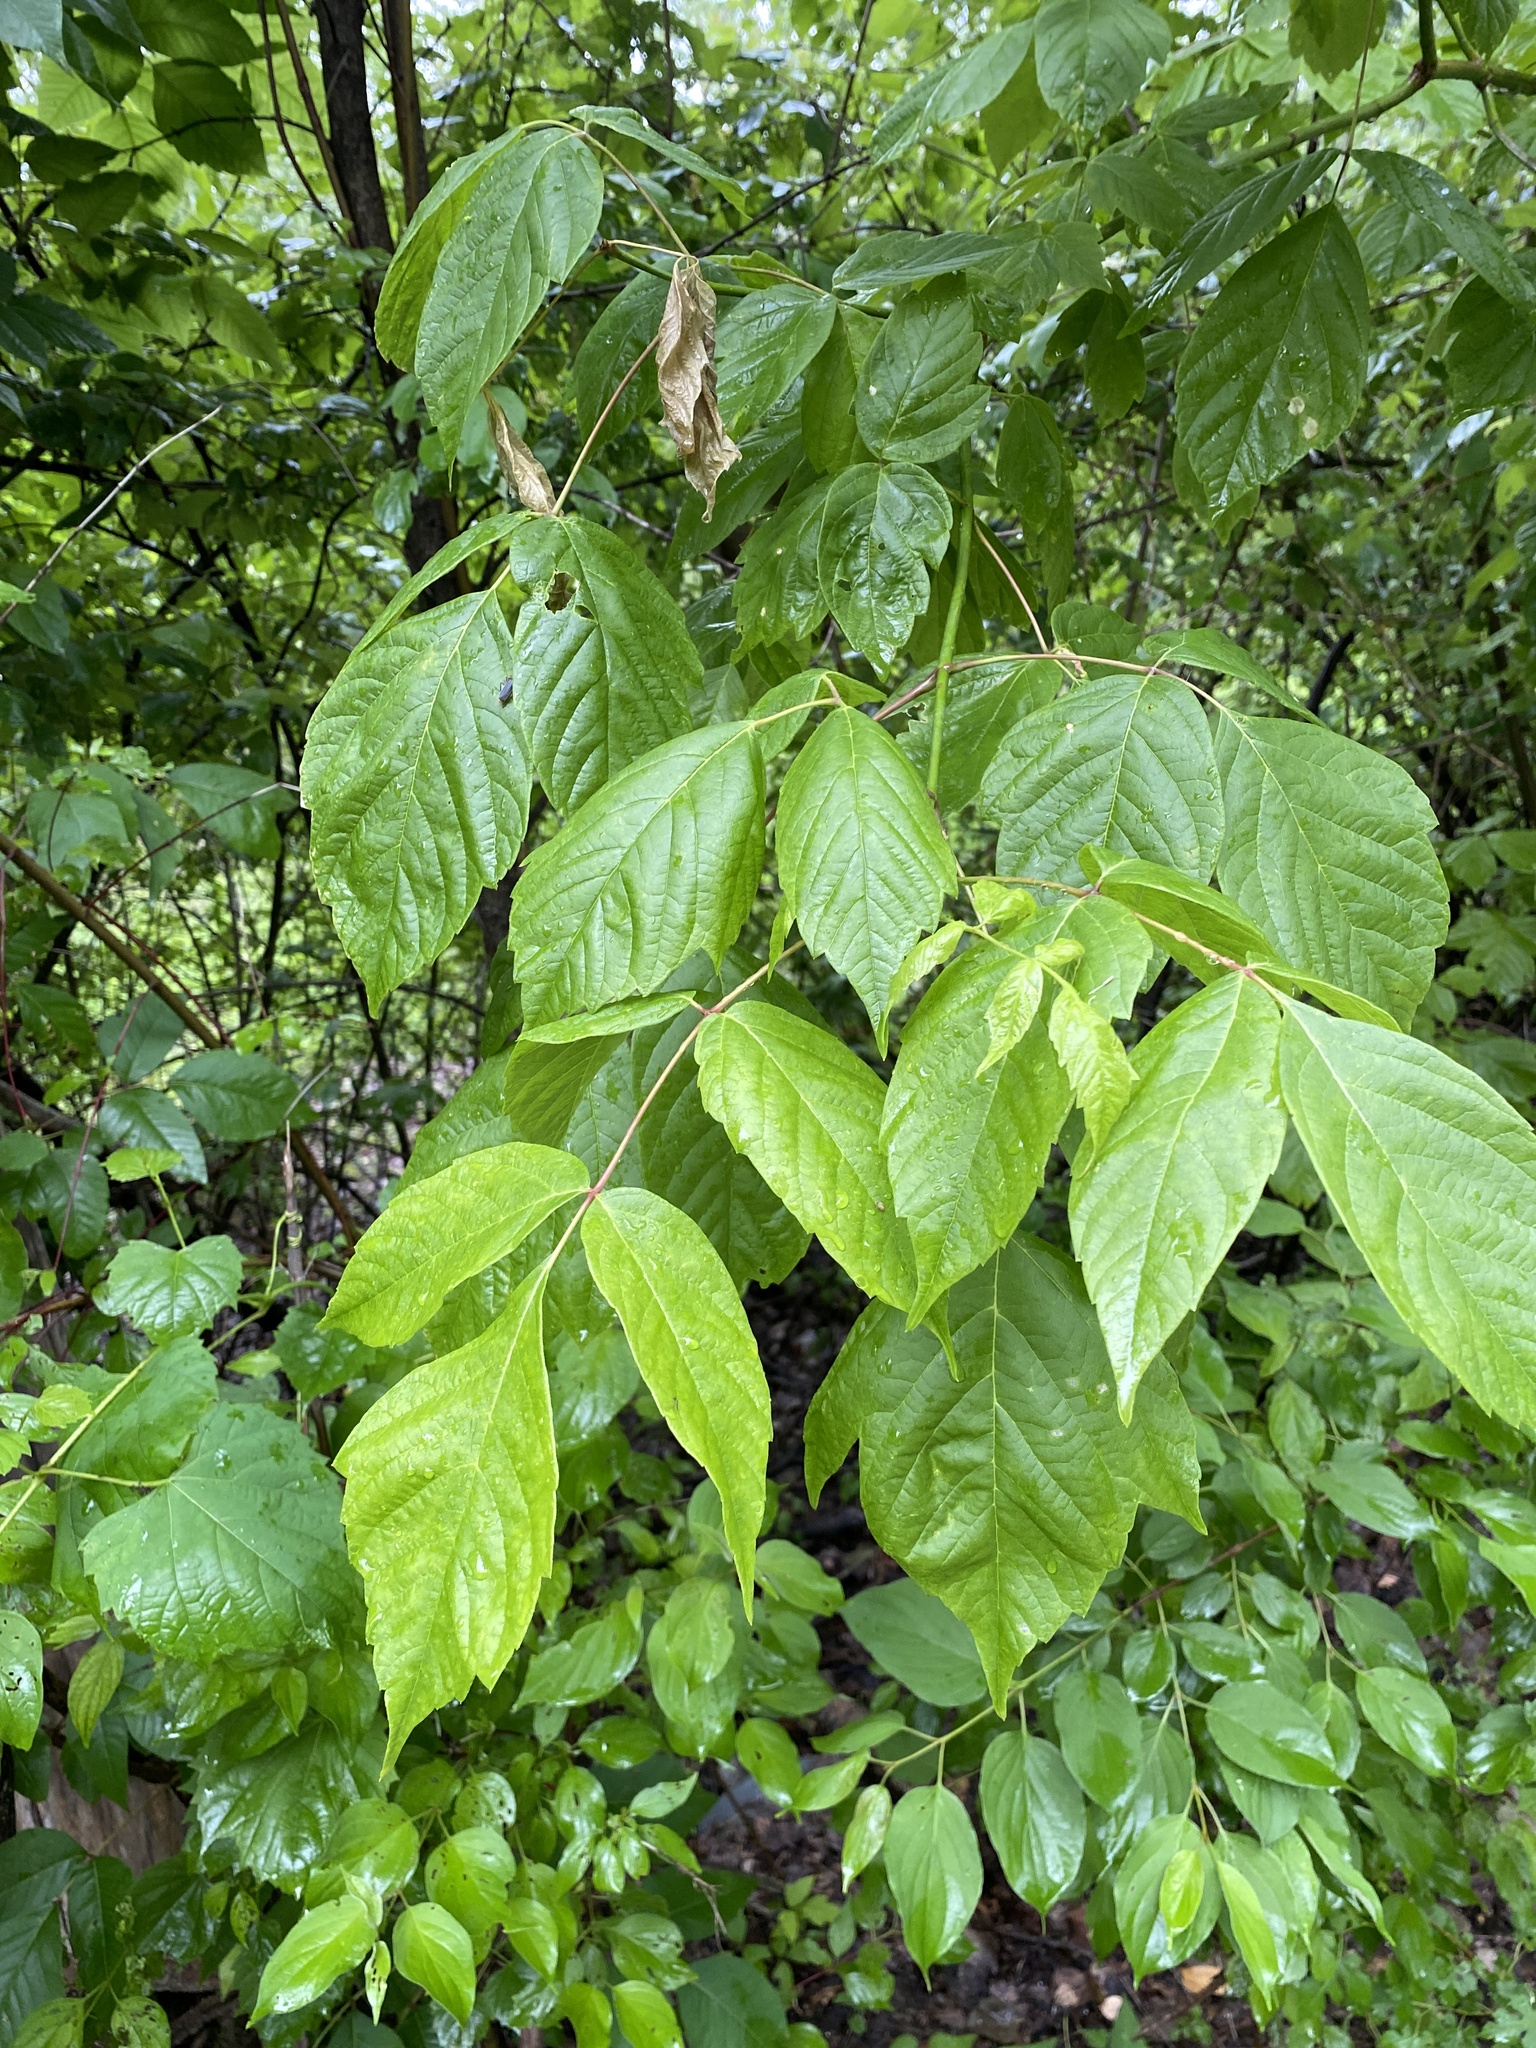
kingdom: Plantae
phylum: Tracheophyta
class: Magnoliopsida
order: Sapindales
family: Sapindaceae
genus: Acer
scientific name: Acer negundo
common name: Ashleaf maple
